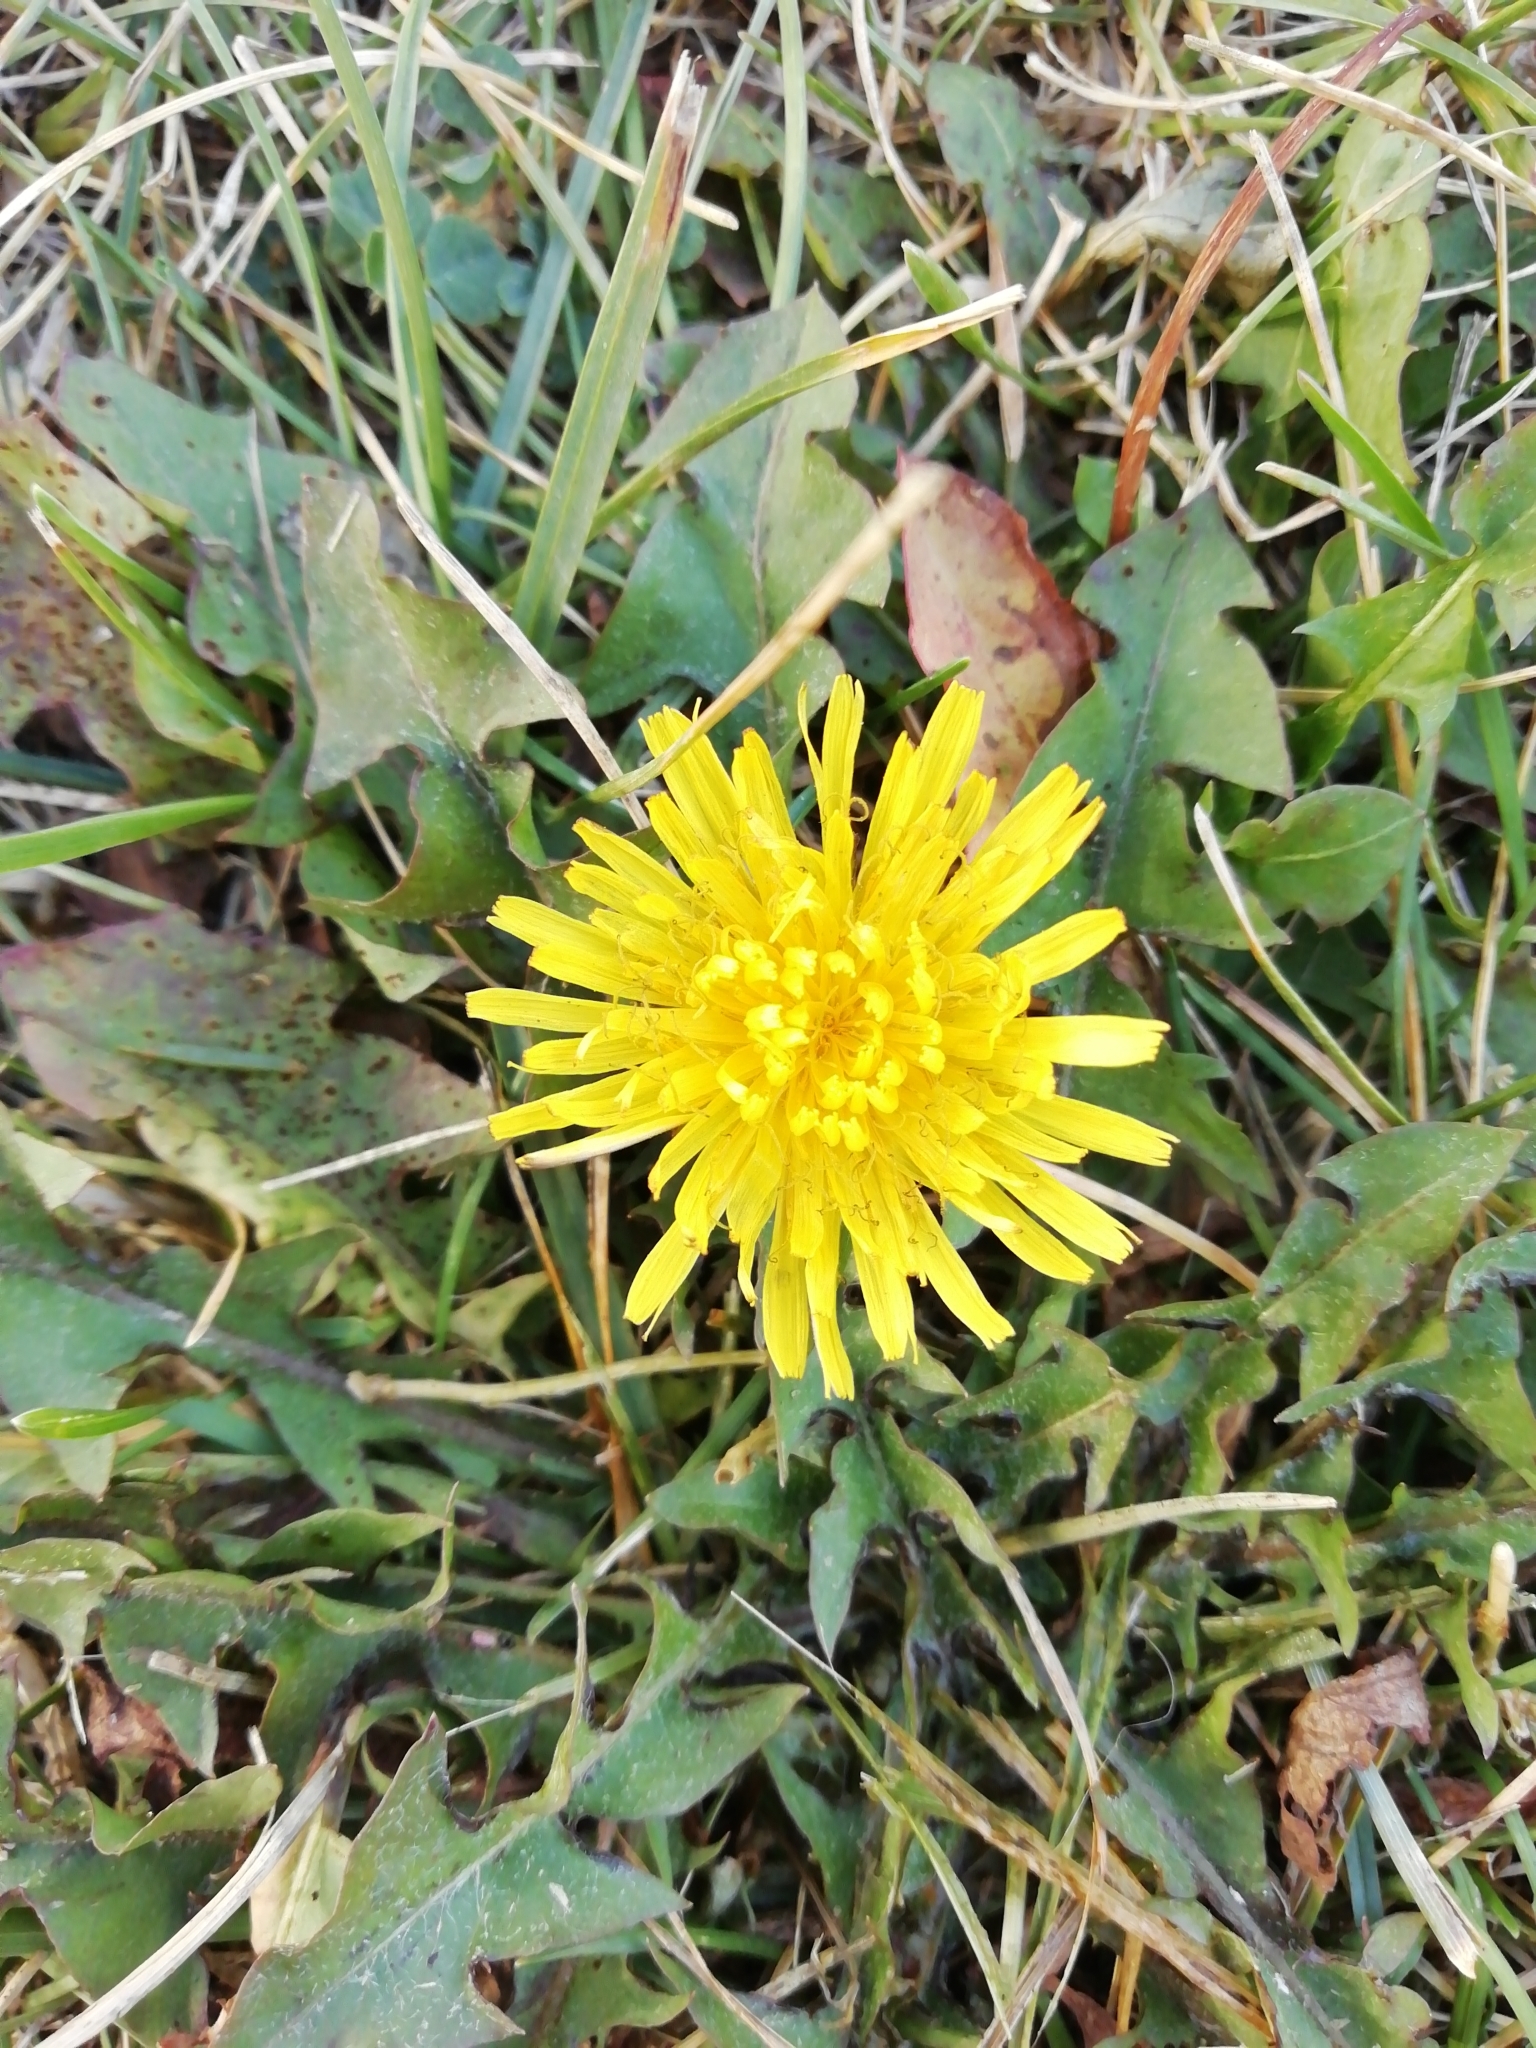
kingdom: Plantae
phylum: Tracheophyta
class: Magnoliopsida
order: Asterales
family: Asteraceae
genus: Taraxacum
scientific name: Taraxacum officinale
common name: Common dandelion
